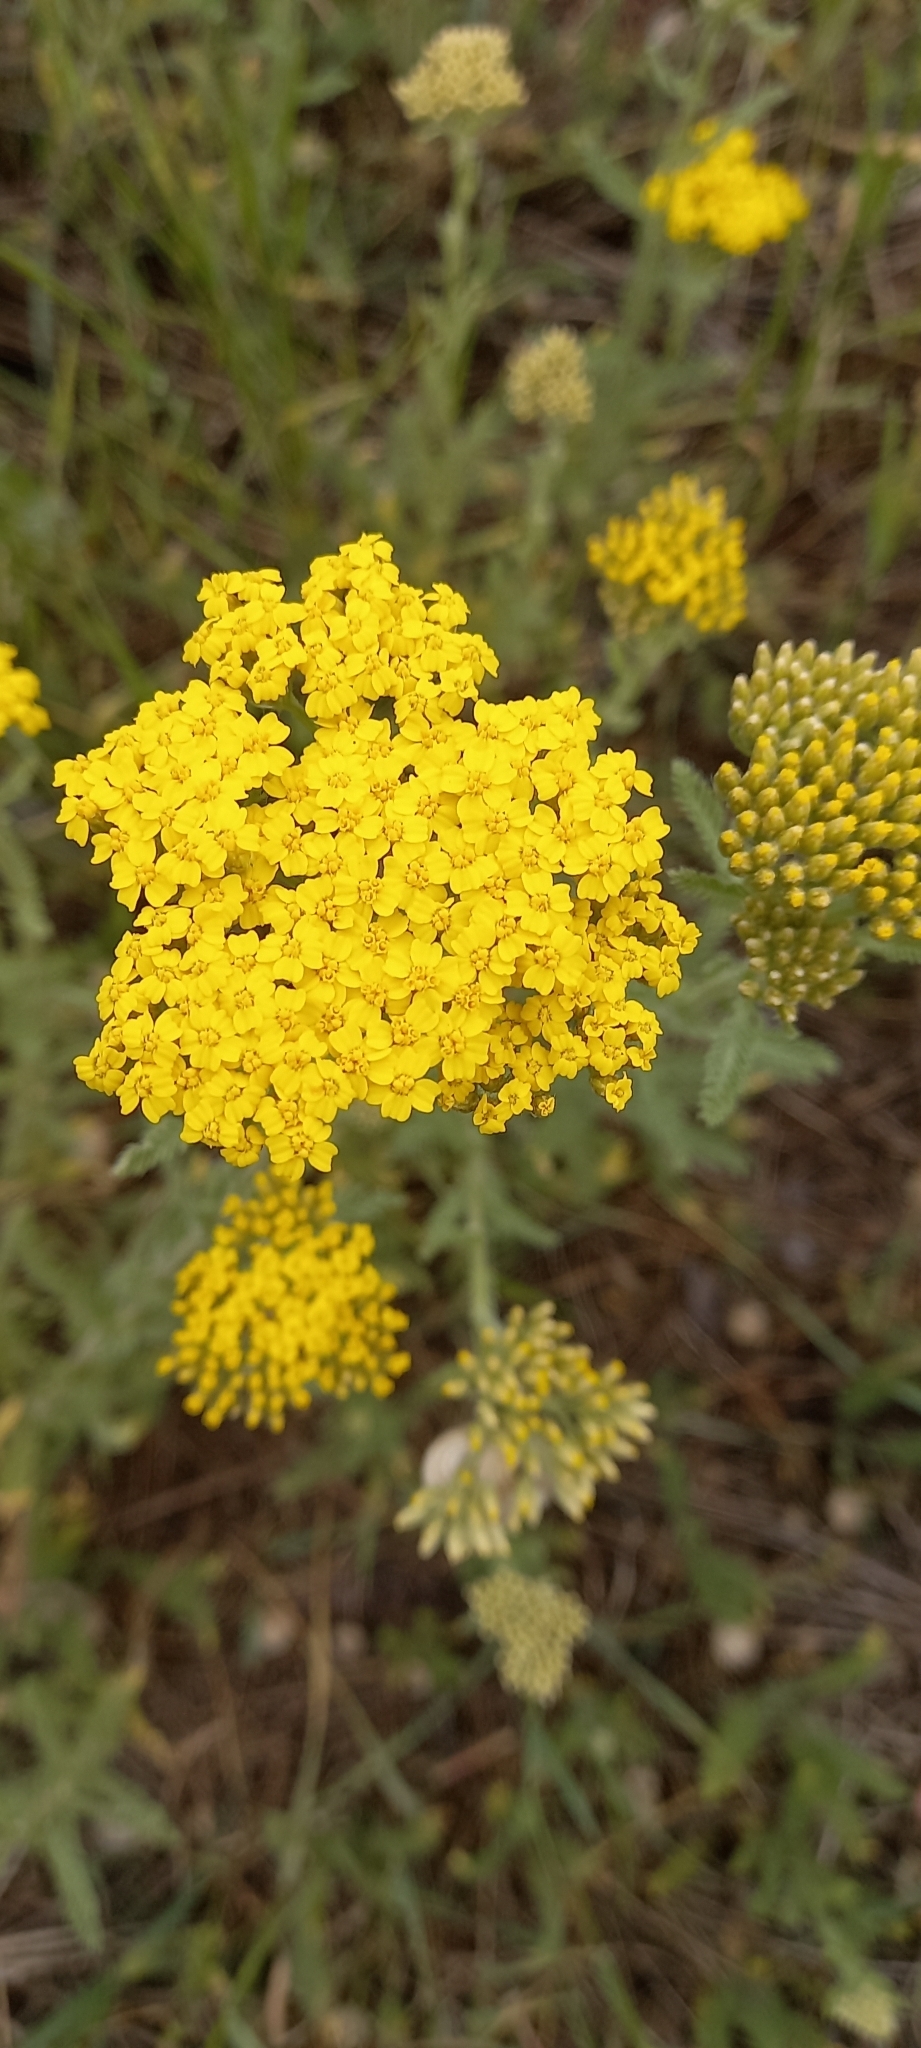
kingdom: Plantae
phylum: Tracheophyta
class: Magnoliopsida
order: Asterales
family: Asteraceae
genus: Achillea
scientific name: Achillea arabica
